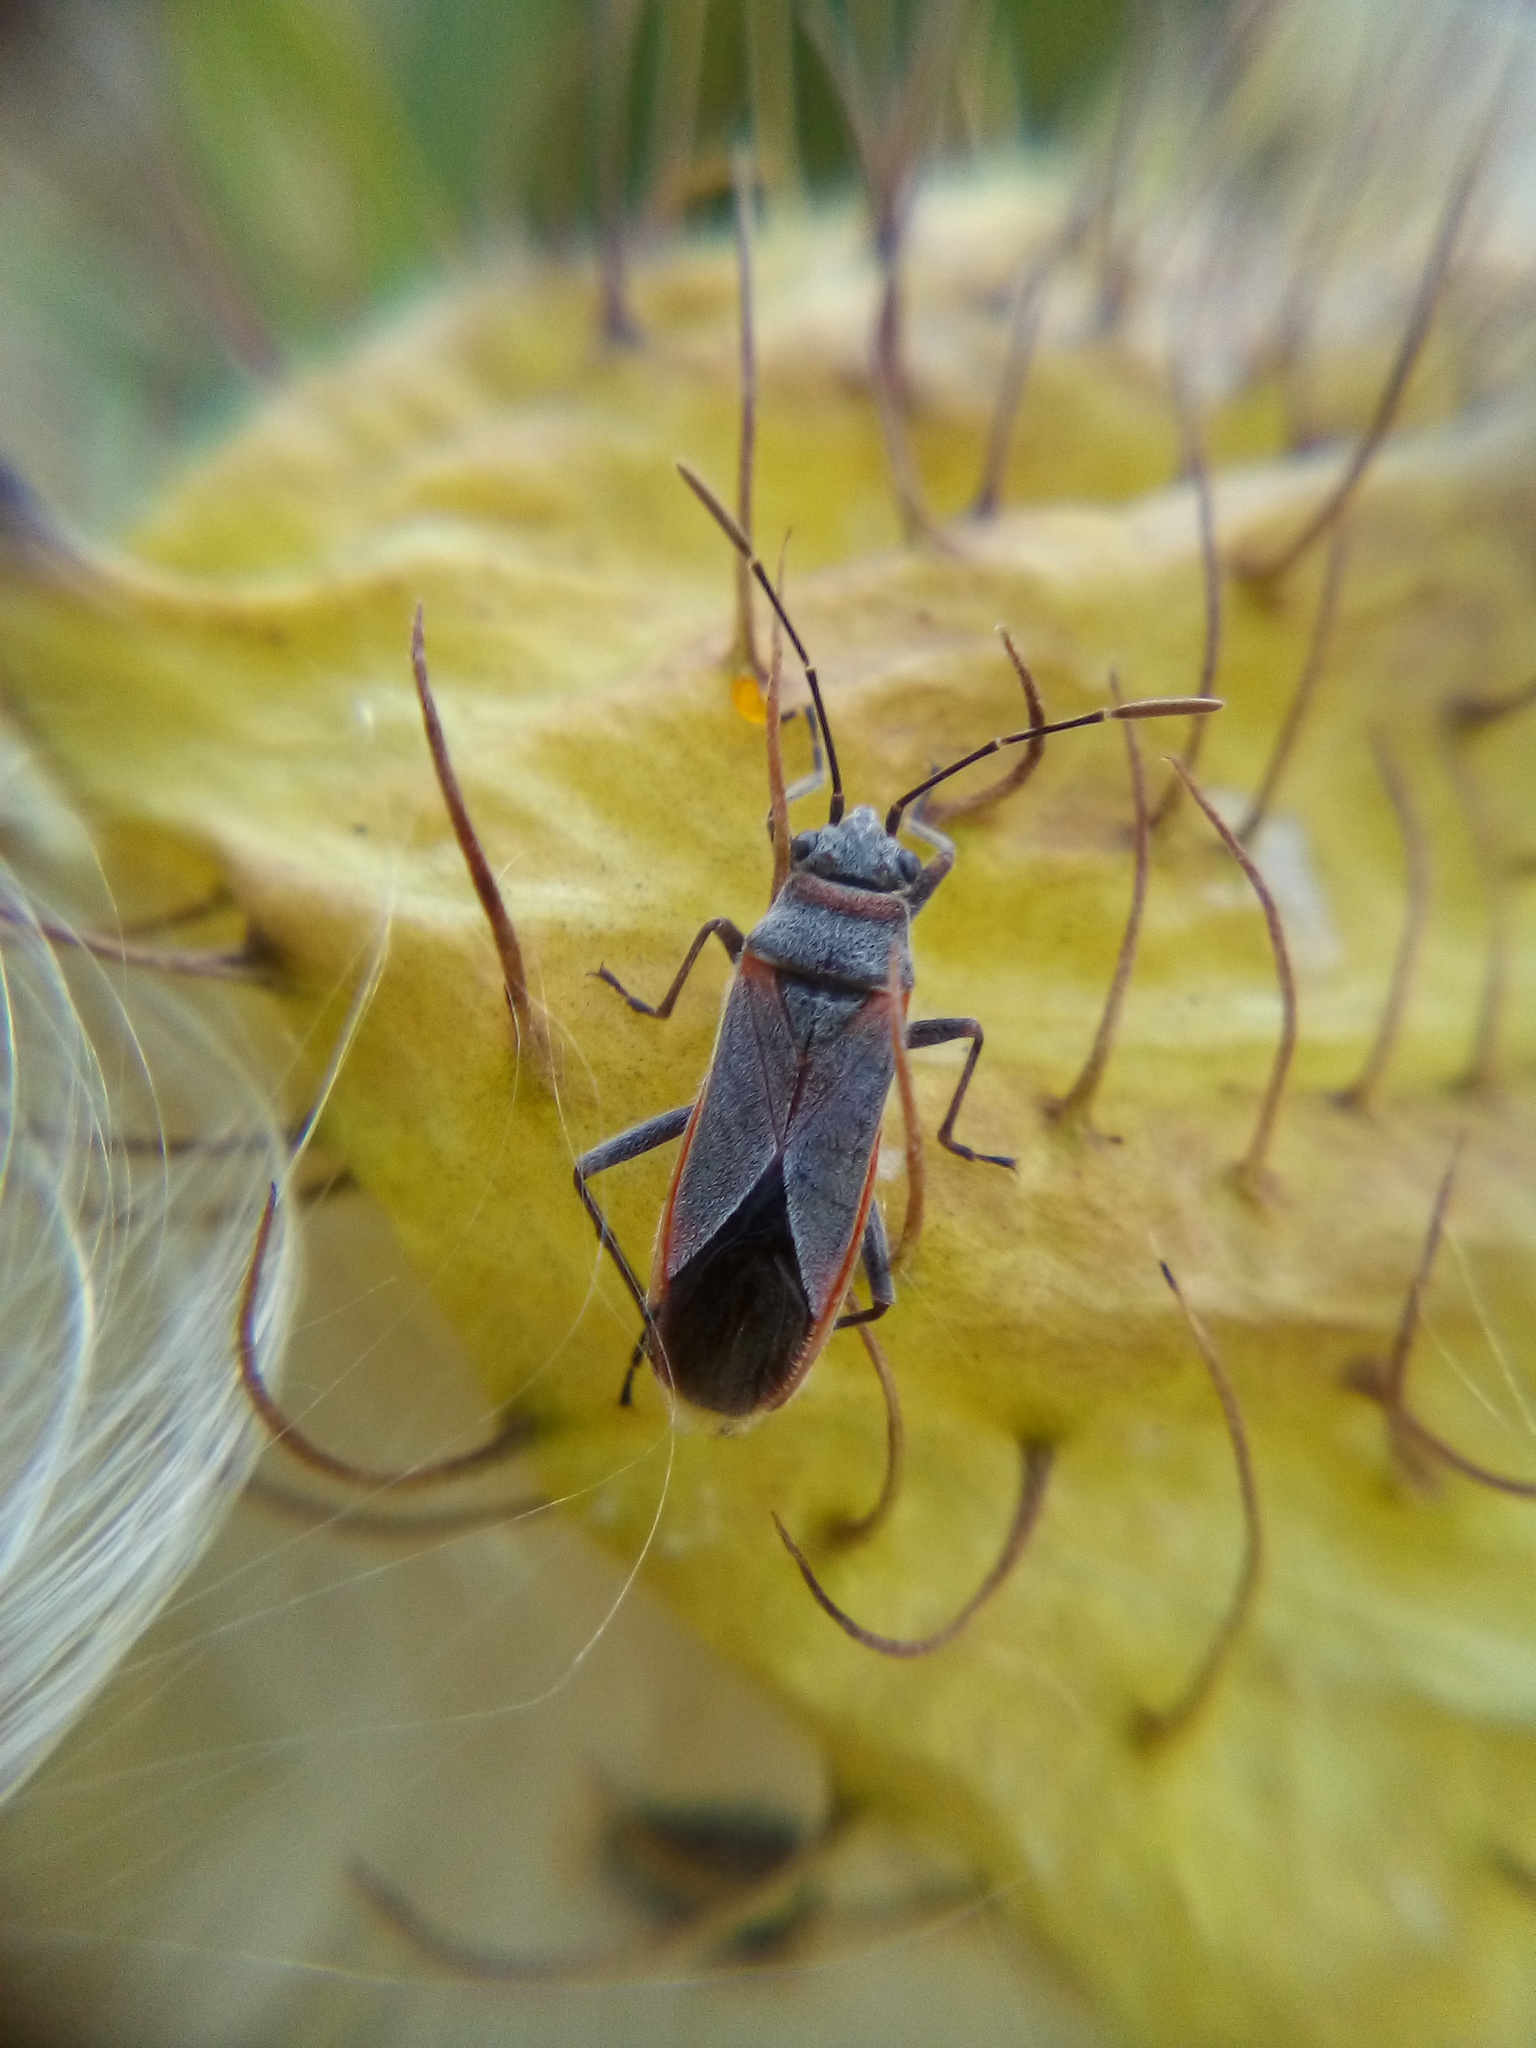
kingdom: Animalia
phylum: Arthropoda
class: Insecta
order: Hemiptera
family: Lygaeidae
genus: Arocatus
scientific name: Arocatus rusticus
